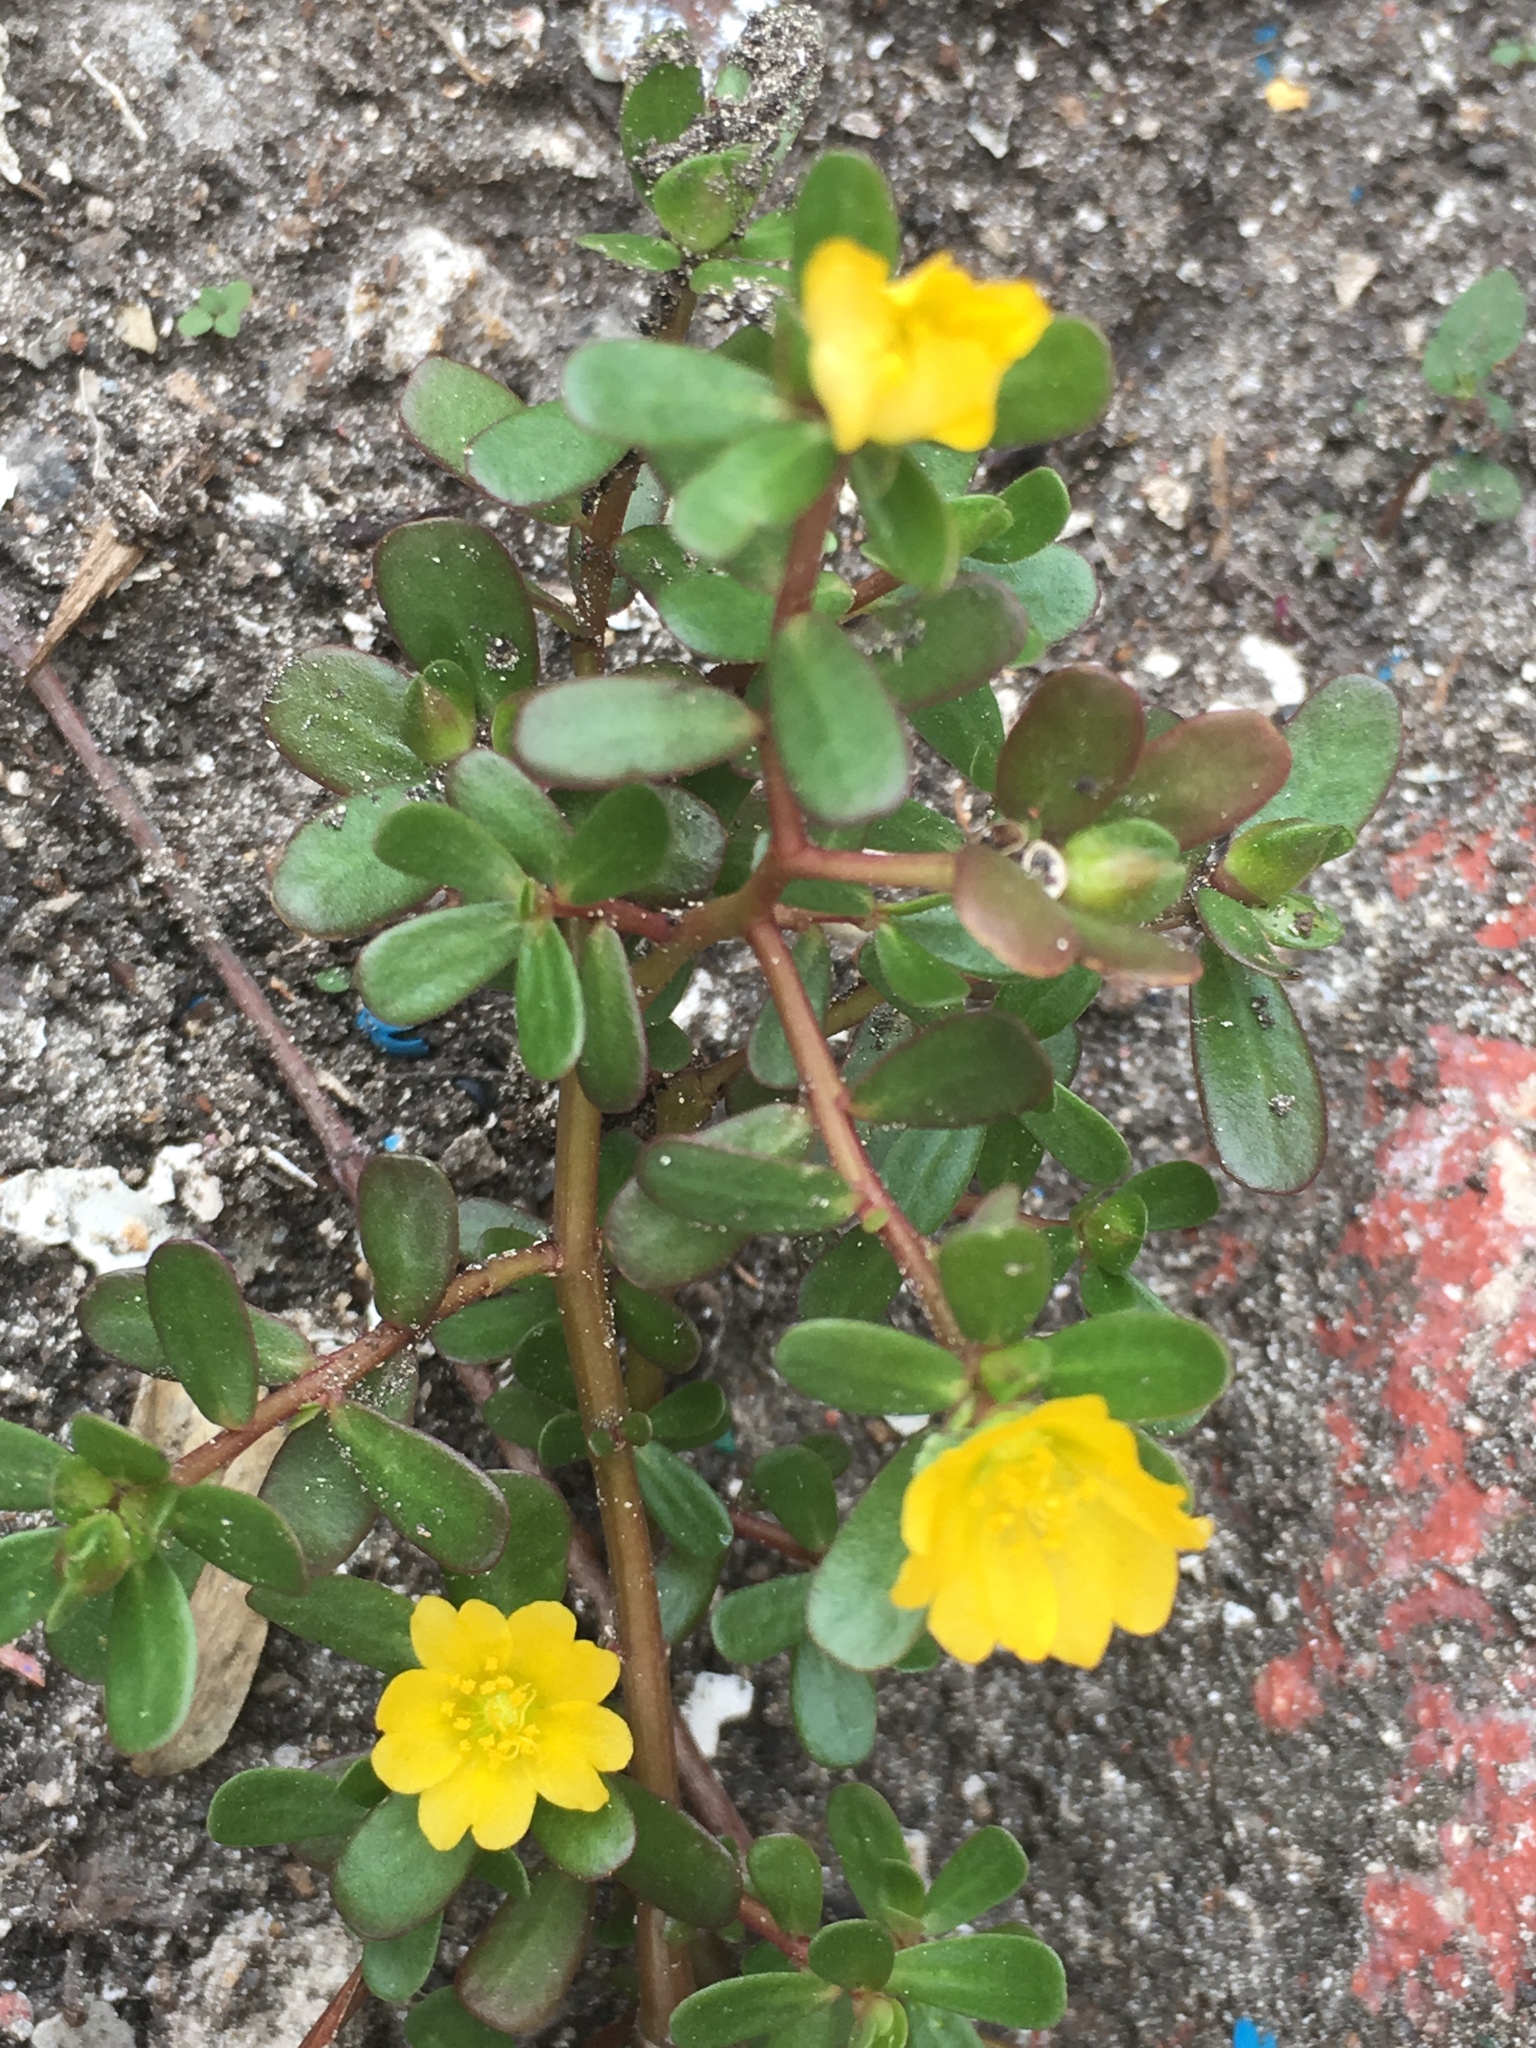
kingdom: Plantae
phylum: Tracheophyta
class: Magnoliopsida
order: Caryophyllales
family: Portulacaceae
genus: Portulaca
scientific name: Portulaca oleracea
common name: Common purslane
